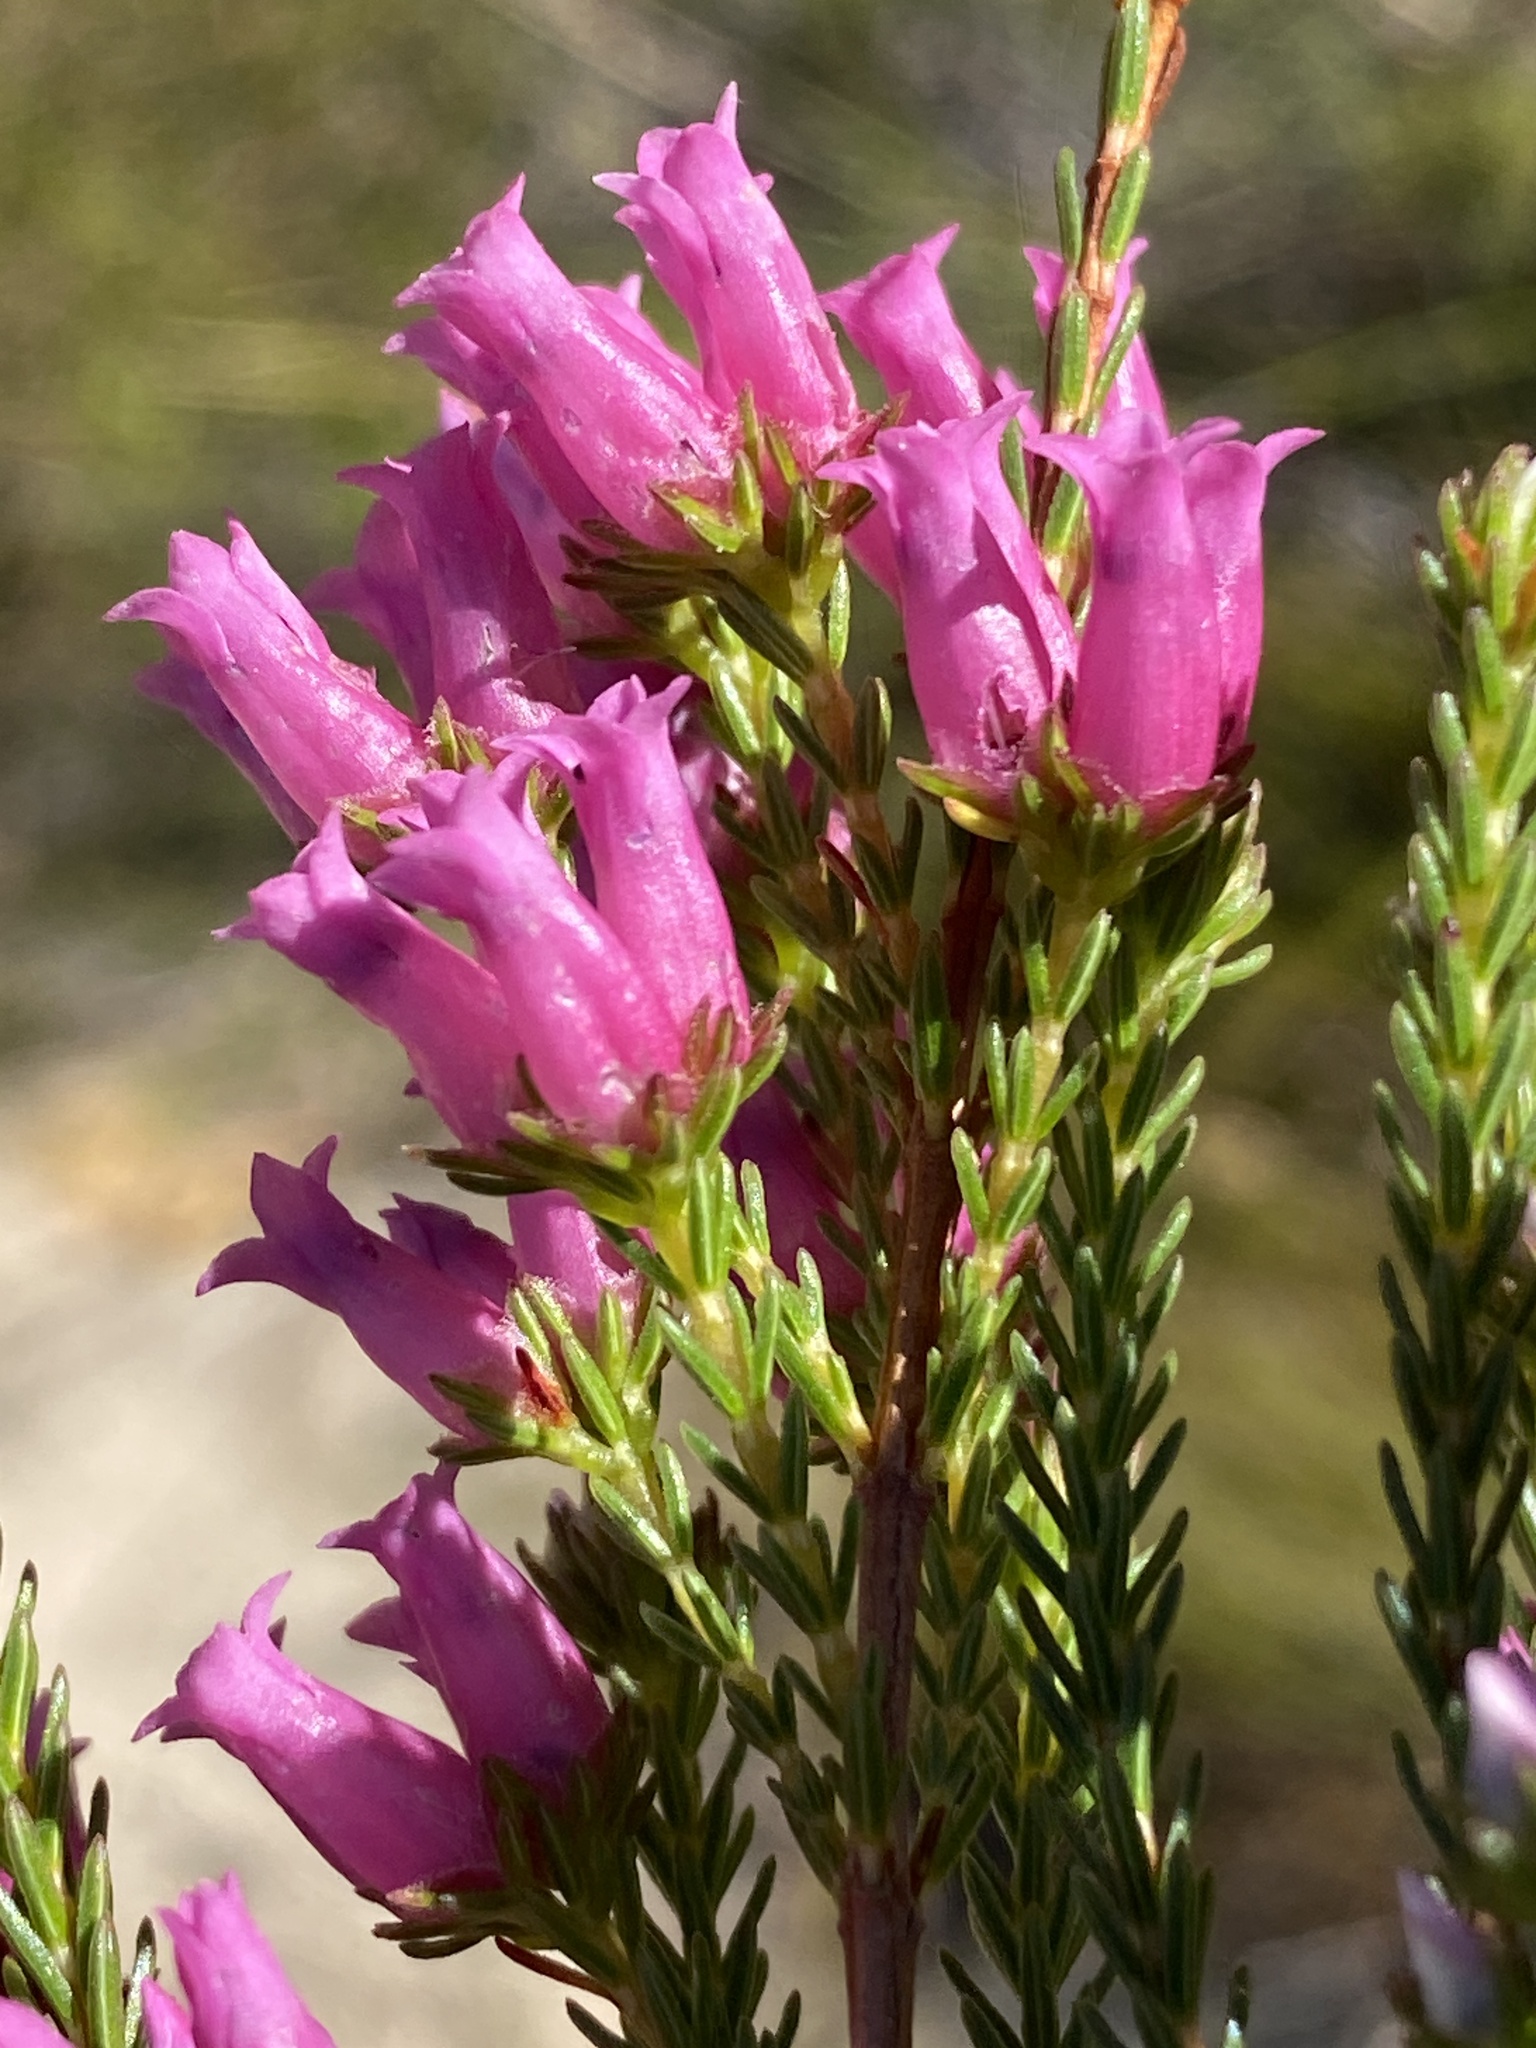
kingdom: Plantae
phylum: Tracheophyta
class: Magnoliopsida
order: Ericales
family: Ericaceae
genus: Erica
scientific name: Erica daphniflora
